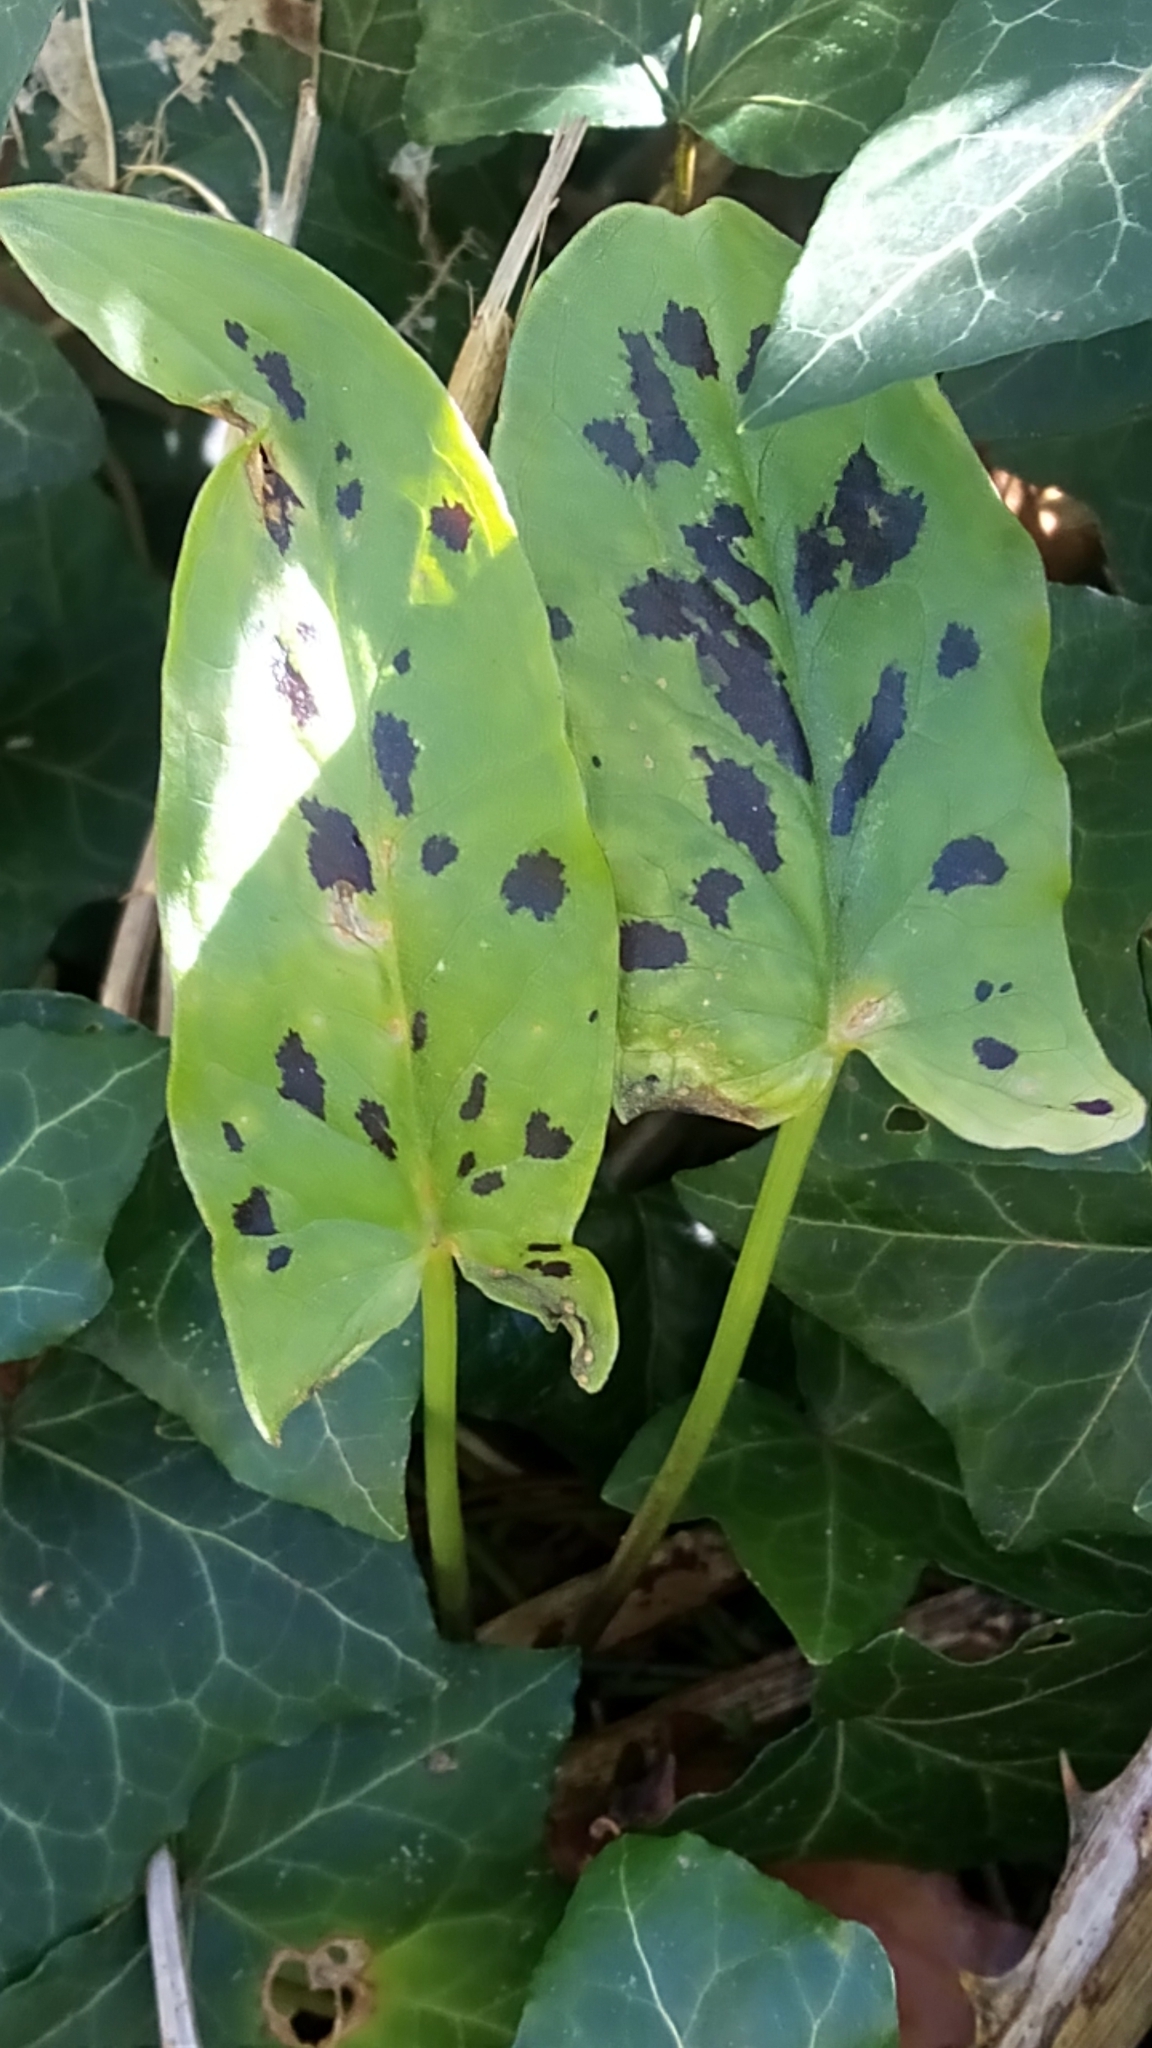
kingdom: Plantae
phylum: Tracheophyta
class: Liliopsida
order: Alismatales
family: Araceae
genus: Arum
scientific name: Arum maculatum
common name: Lords-and-ladies
